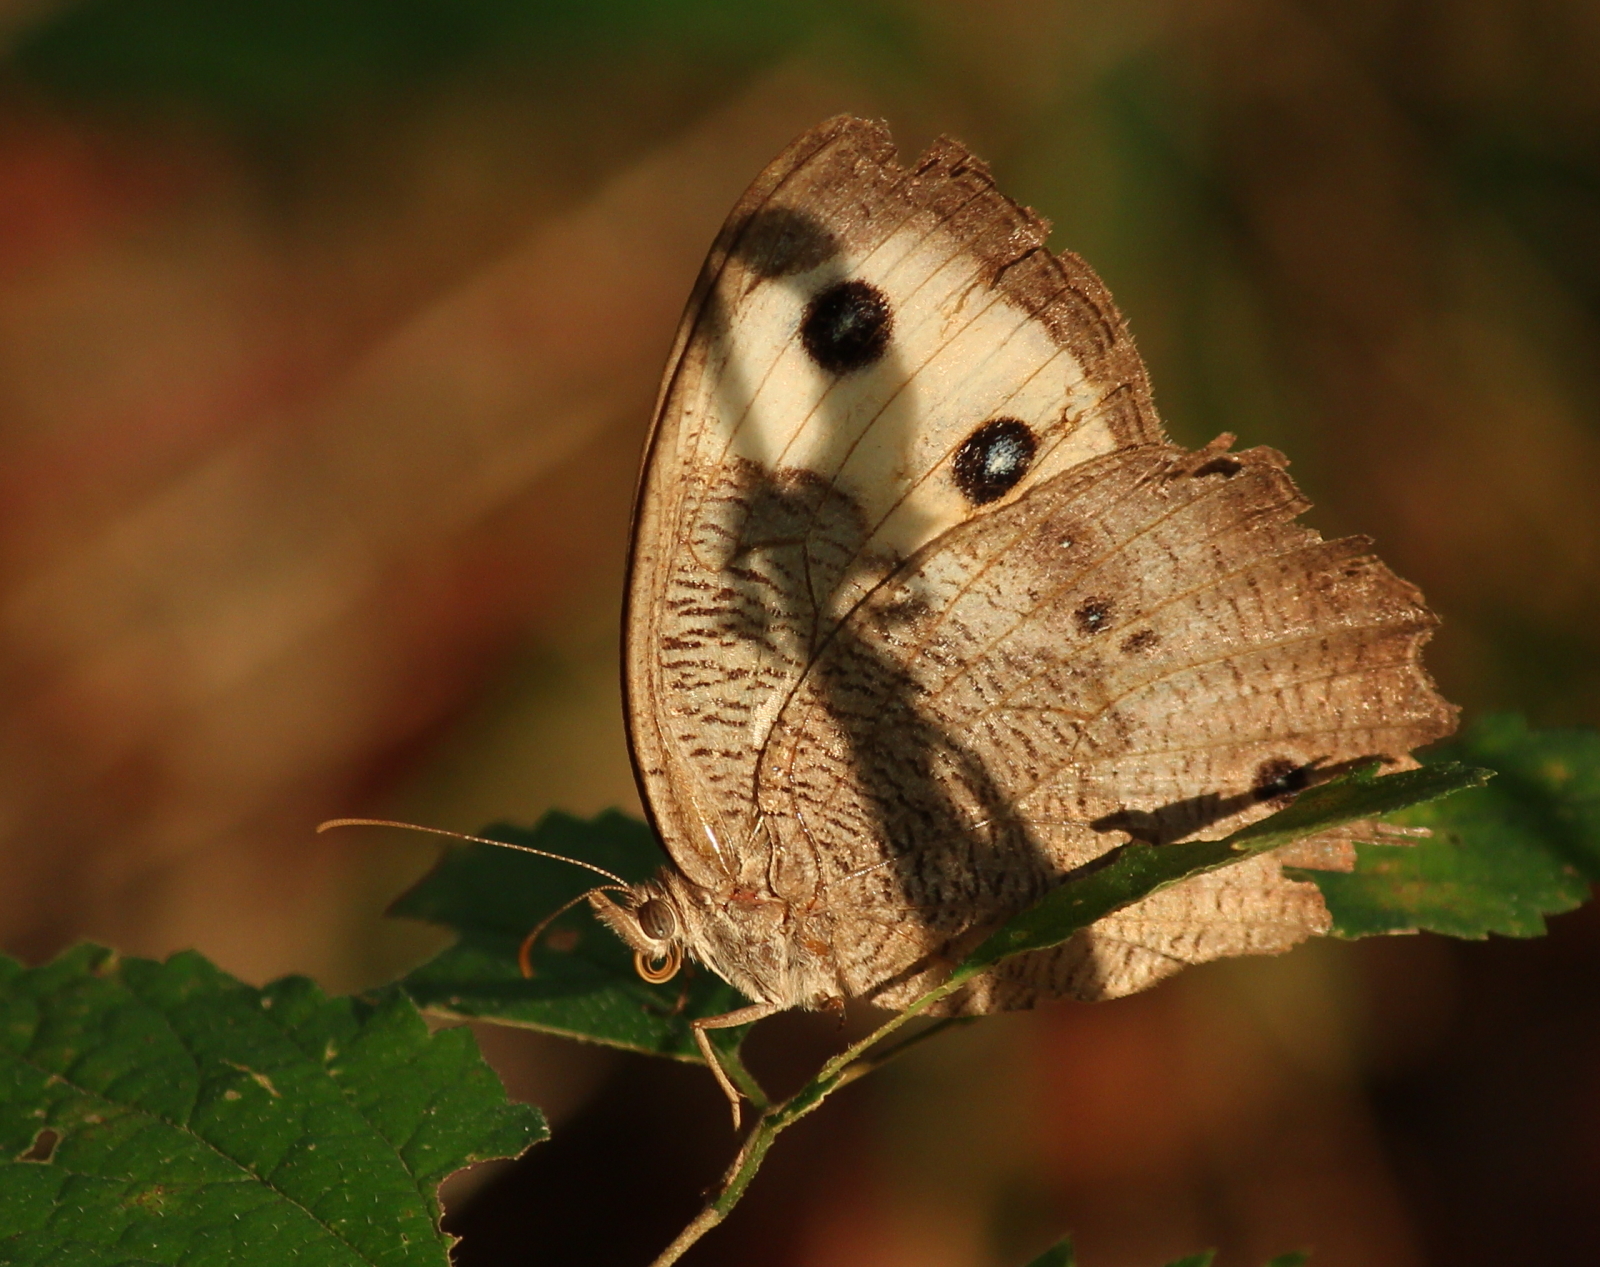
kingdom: Animalia
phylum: Arthropoda
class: Insecta
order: Lepidoptera
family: Nymphalidae
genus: Cercyonis
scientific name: Cercyonis pegala
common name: Common wood-nymph
